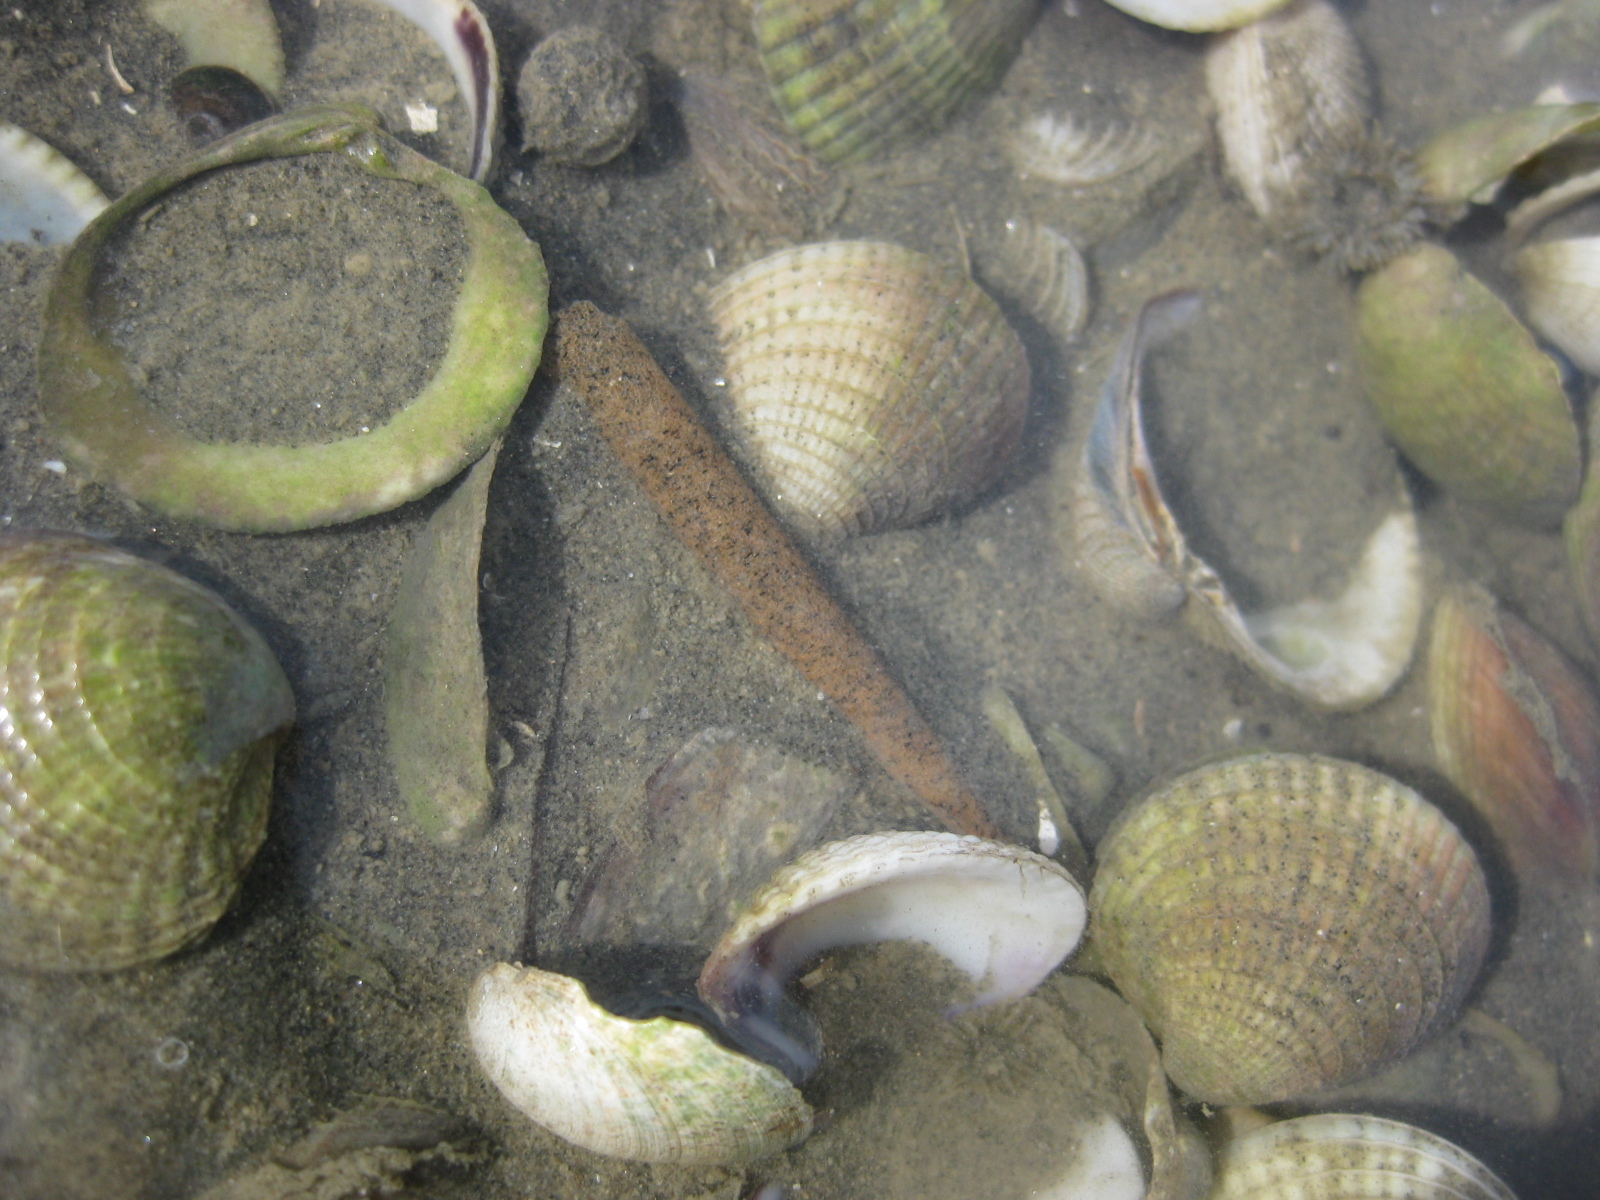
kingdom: Animalia
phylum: Annelida
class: Polychaeta
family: Pectinariidae
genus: Lagis
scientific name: Lagis australis
